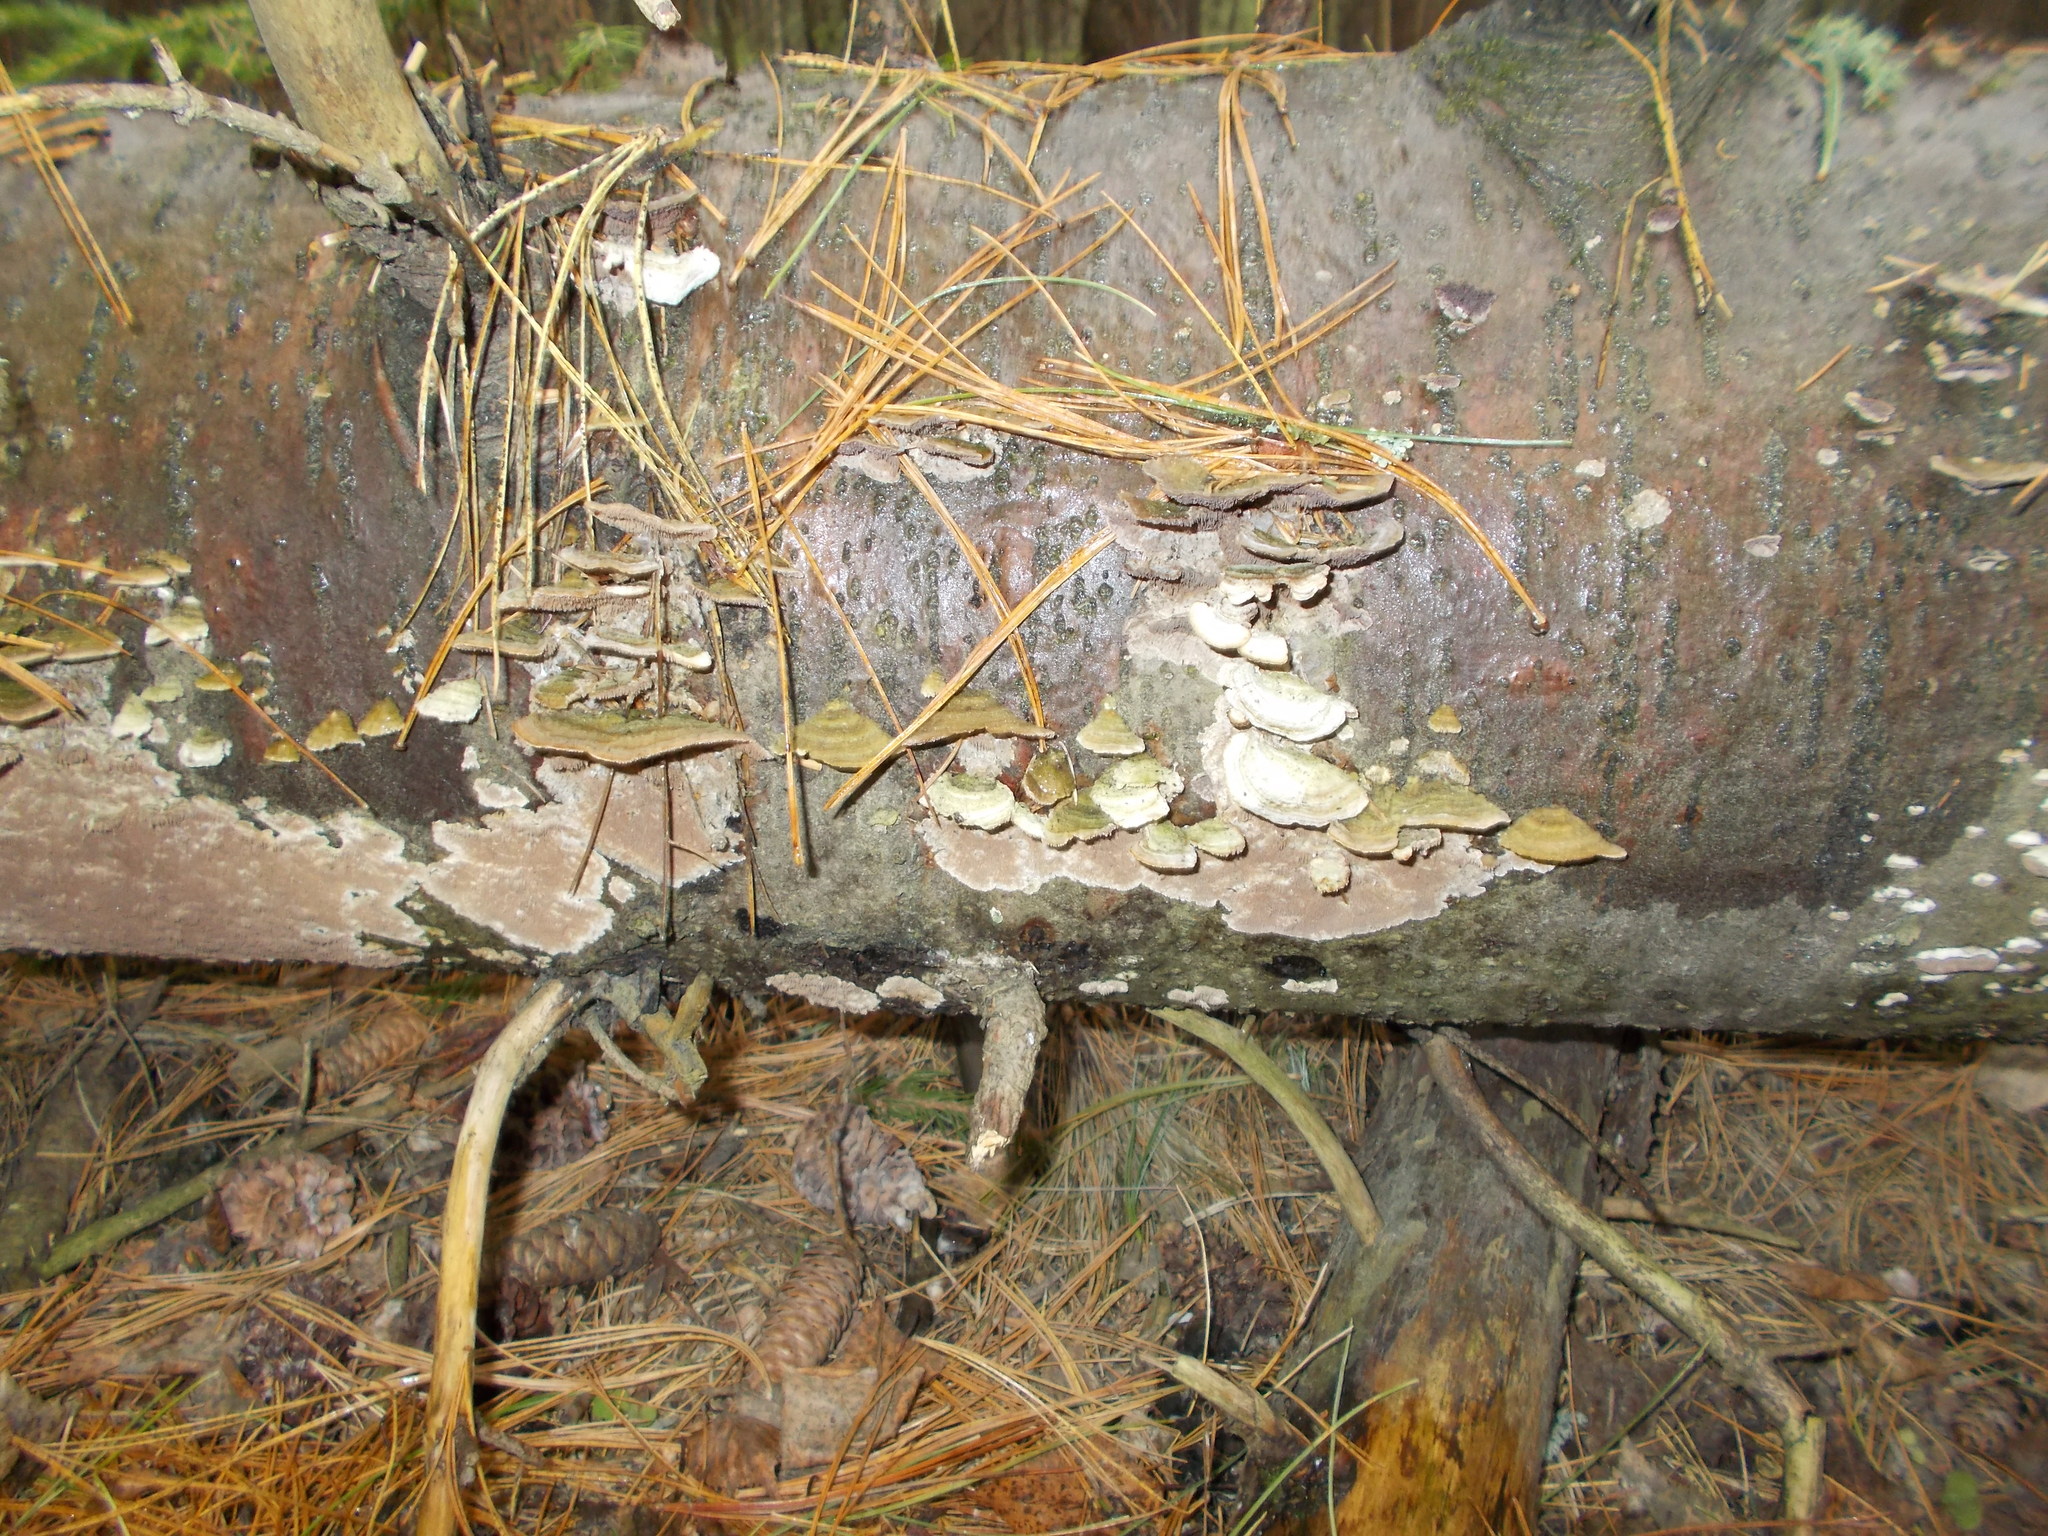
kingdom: Fungi
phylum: Basidiomycota
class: Agaricomycetes
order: Hymenochaetales
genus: Trichaptum
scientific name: Trichaptum fuscoviolaceum
